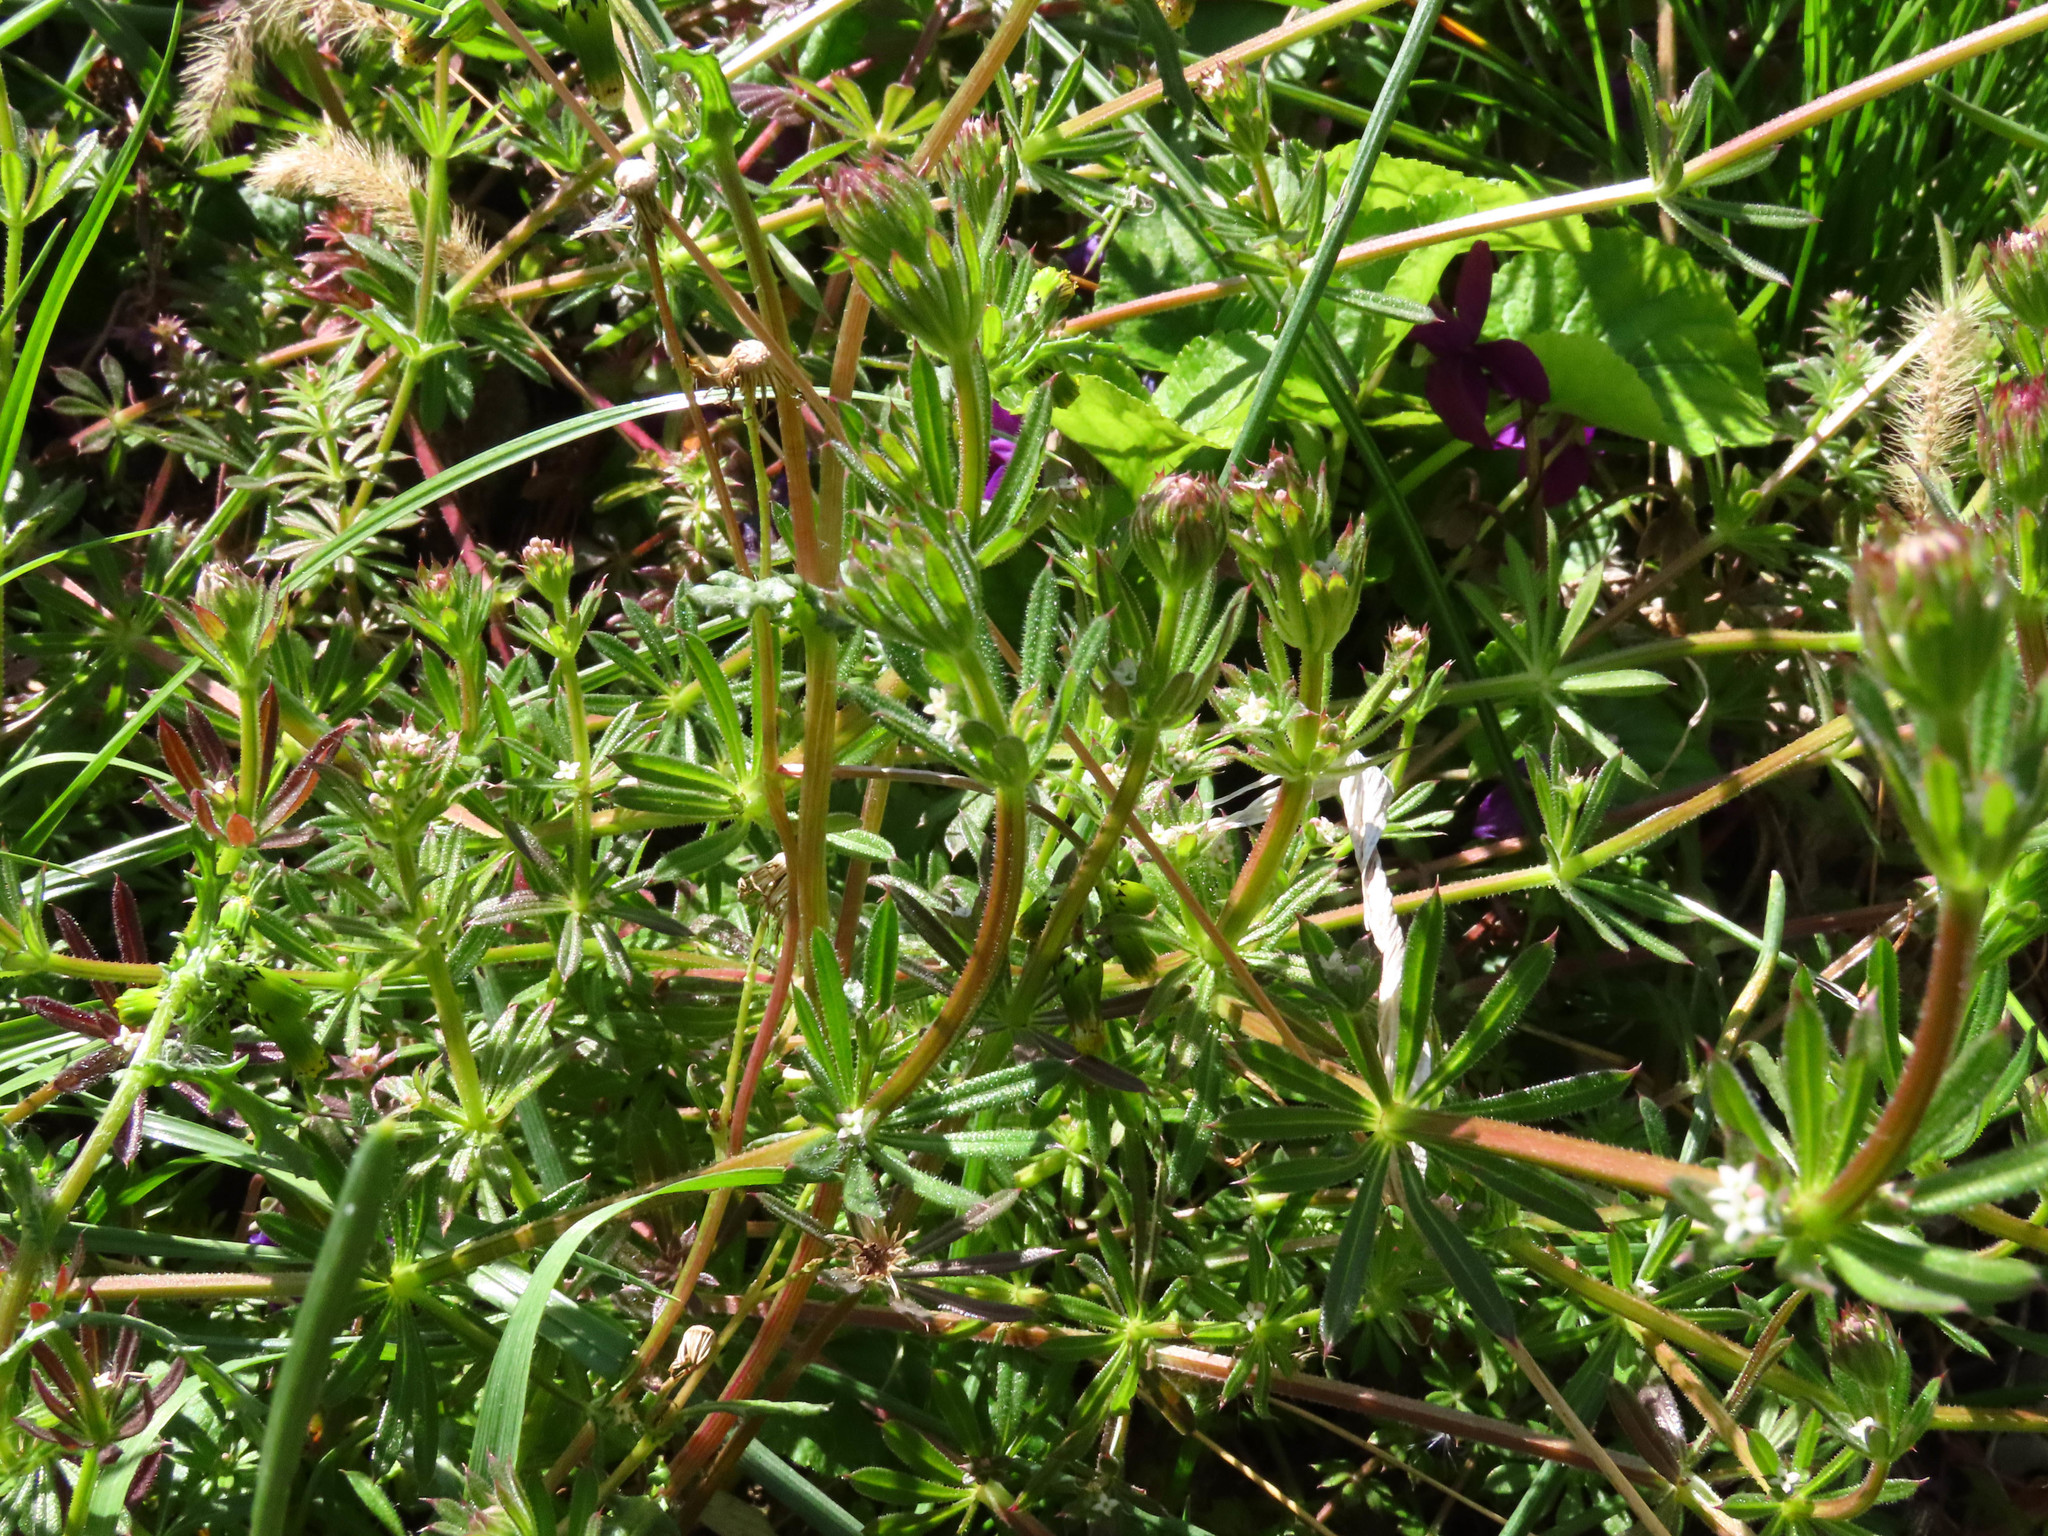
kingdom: Plantae
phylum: Tracheophyta
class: Magnoliopsida
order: Gentianales
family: Rubiaceae
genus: Galium
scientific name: Galium aparine
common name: Cleavers
